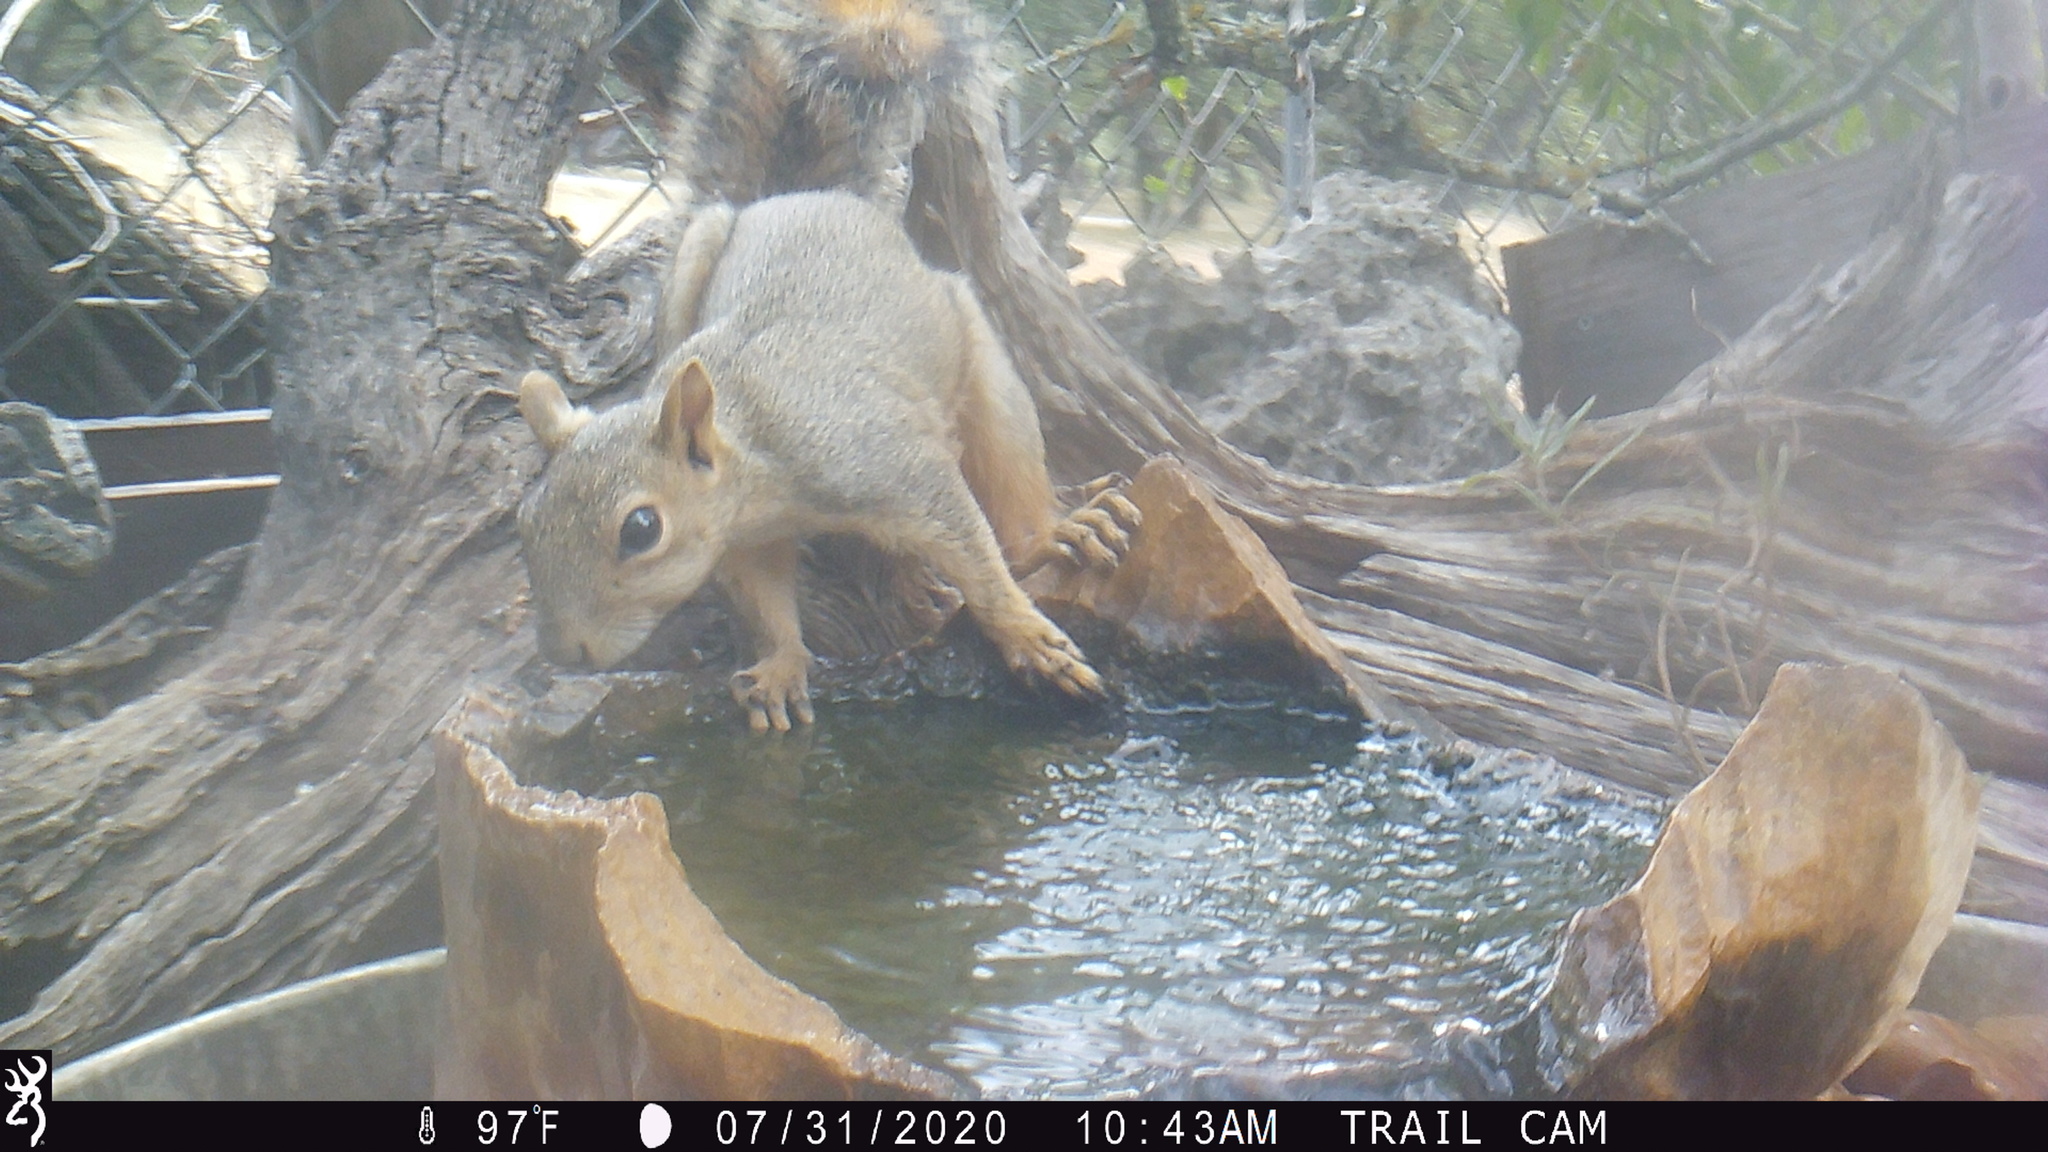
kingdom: Animalia
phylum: Chordata
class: Mammalia
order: Rodentia
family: Sciuridae
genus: Sciurus
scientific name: Sciurus niger
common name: Fox squirrel
